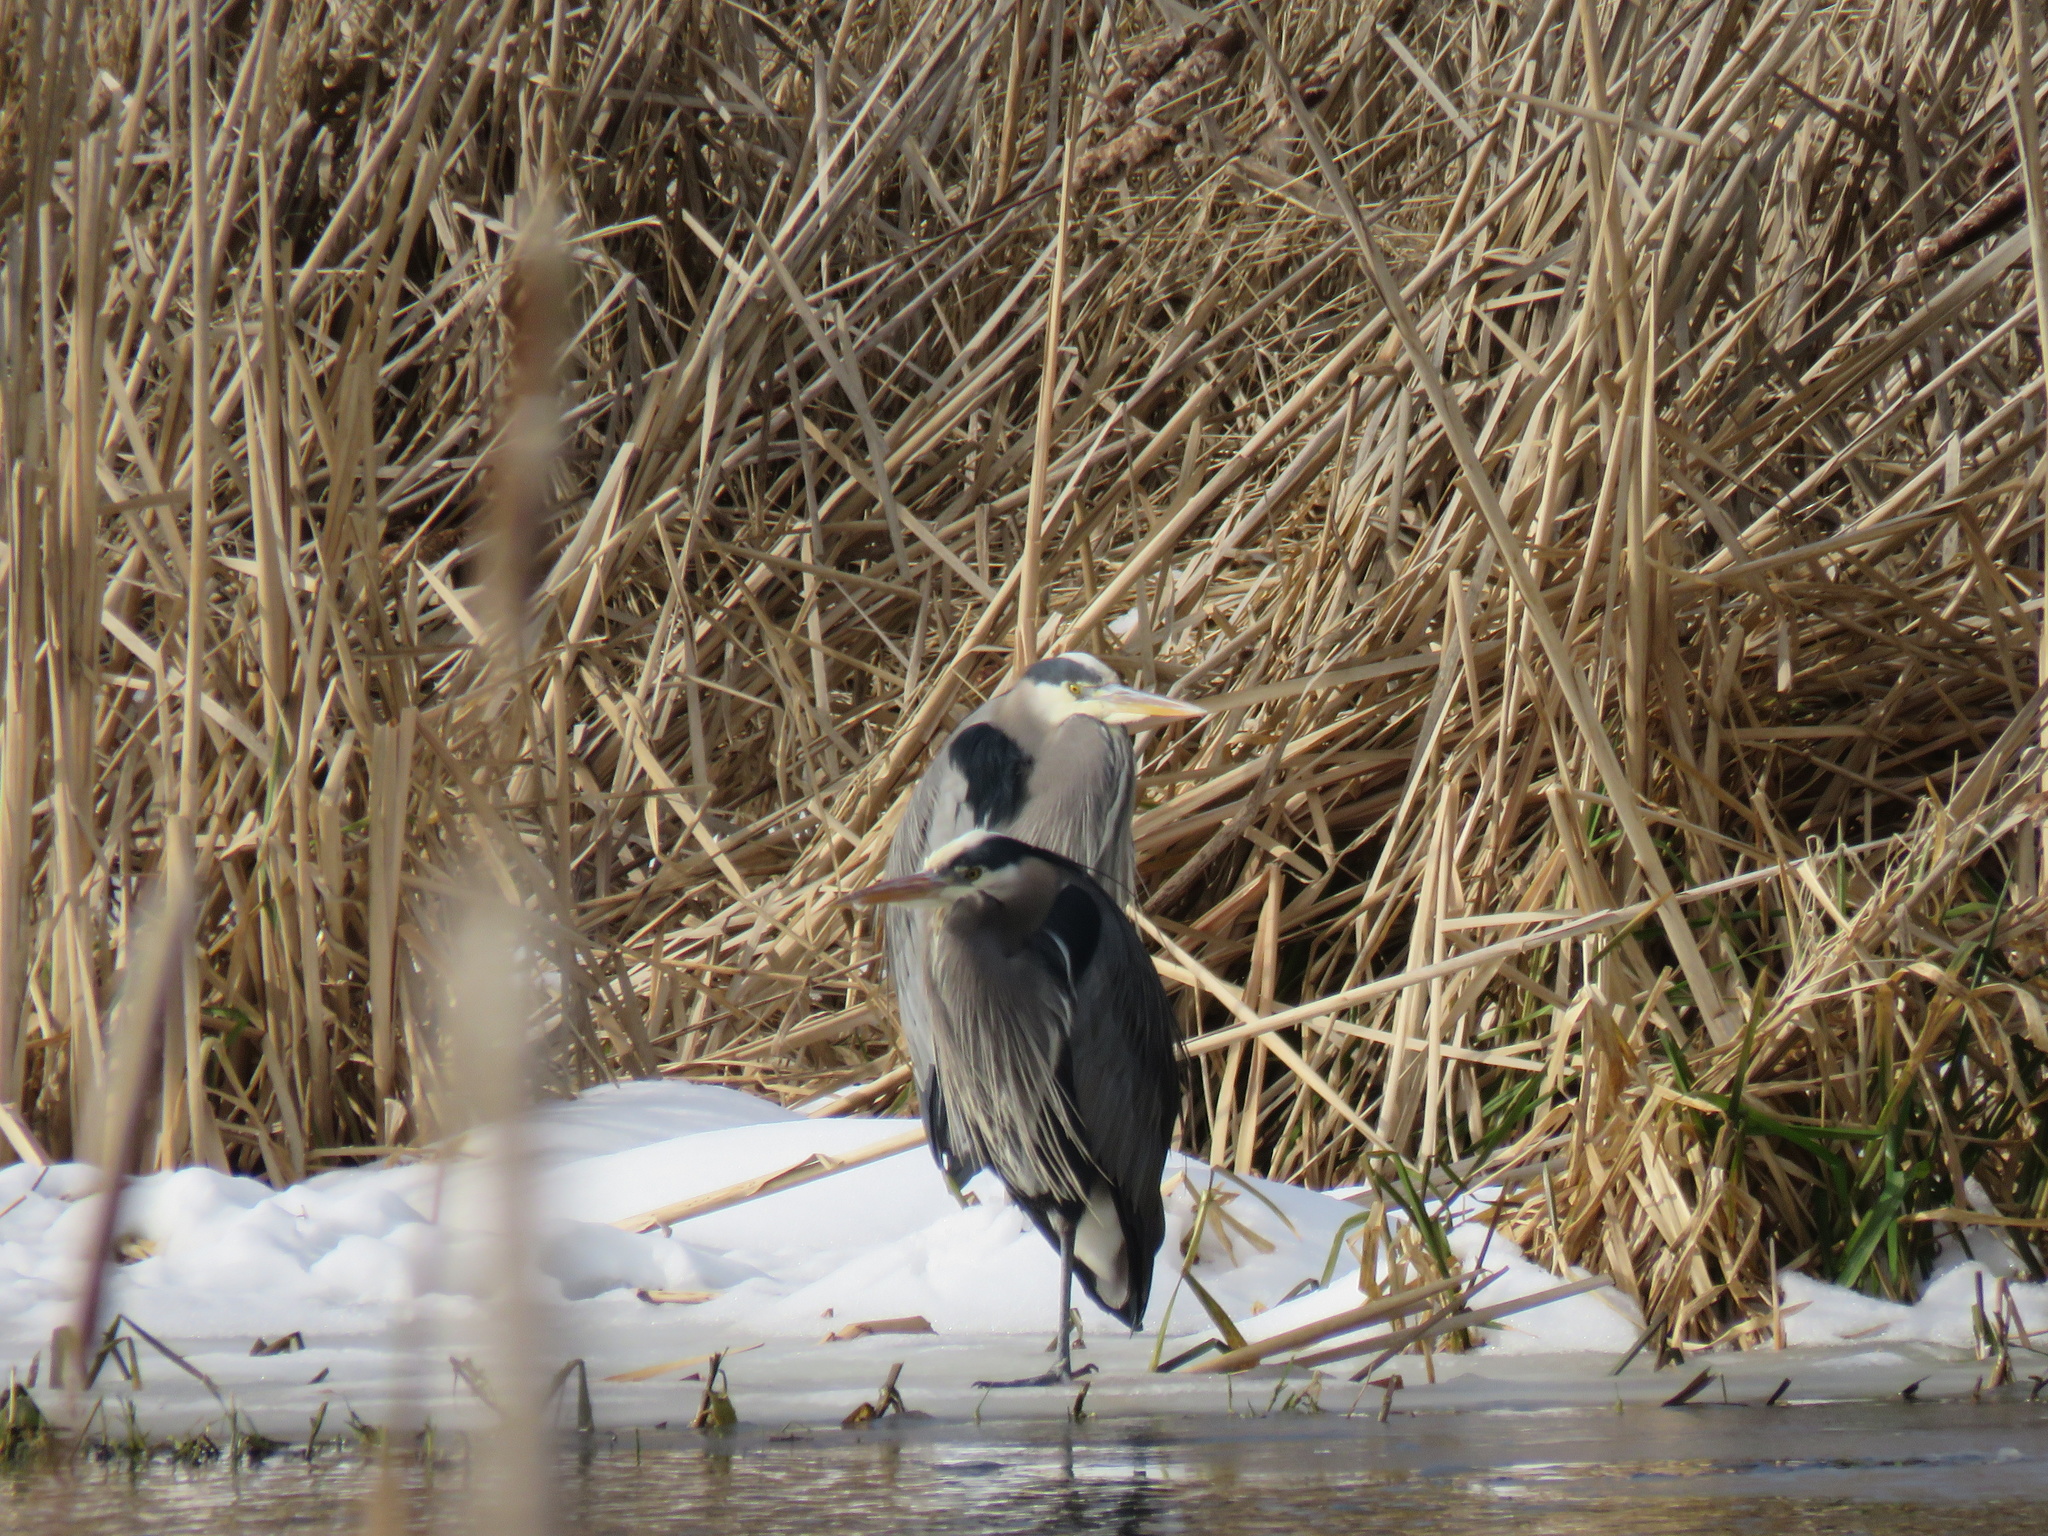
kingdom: Animalia
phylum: Chordata
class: Aves
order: Pelecaniformes
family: Ardeidae
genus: Ardea
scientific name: Ardea herodias
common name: Great blue heron
